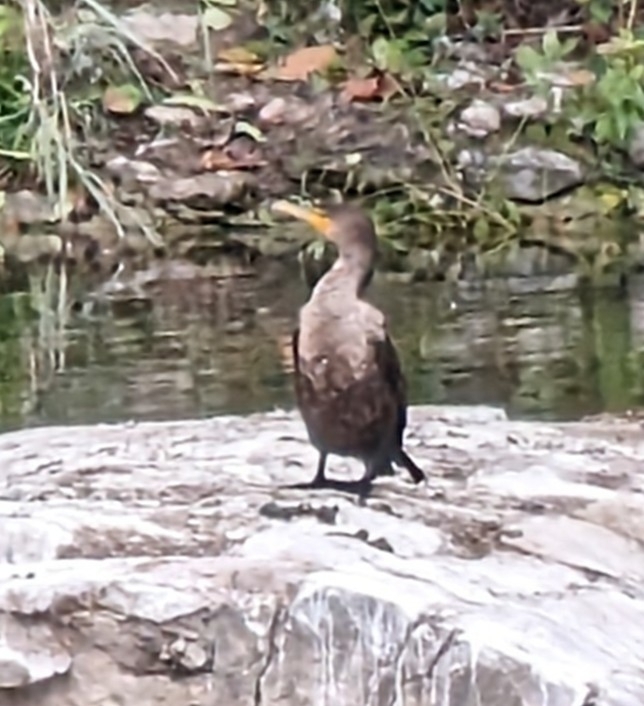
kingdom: Animalia
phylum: Chordata
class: Aves
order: Suliformes
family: Phalacrocoracidae
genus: Phalacrocorax
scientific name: Phalacrocorax auritus
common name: Double-crested cormorant
